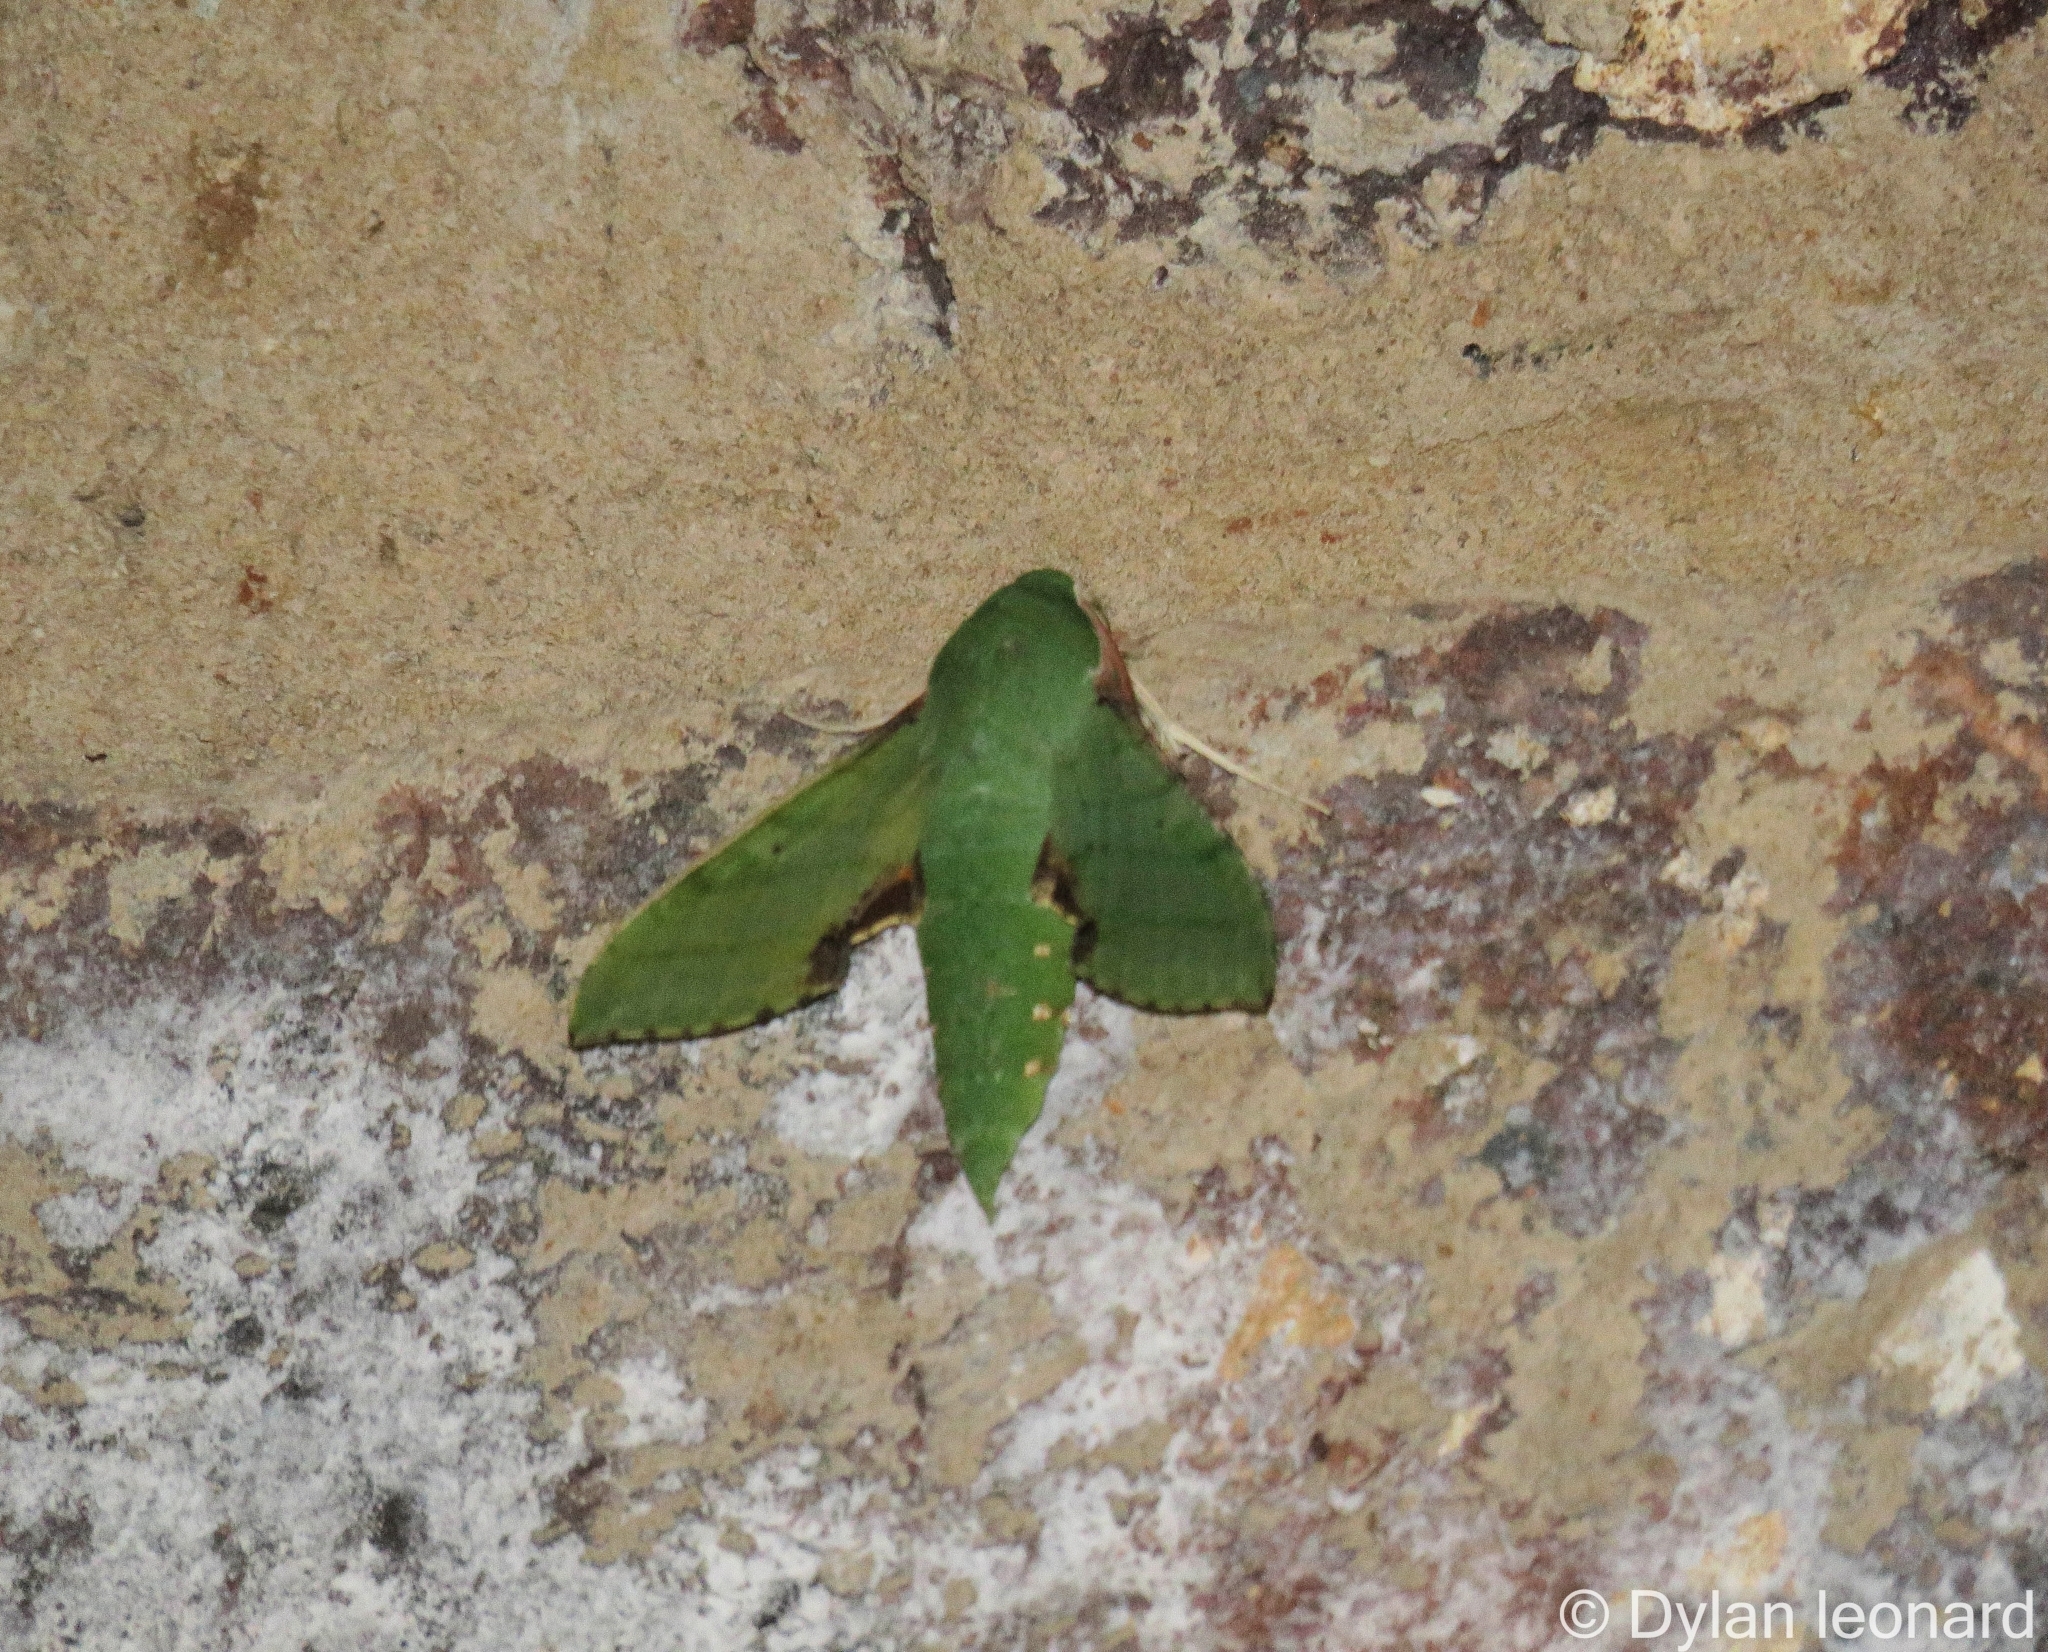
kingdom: Animalia
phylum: Arthropoda
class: Insecta
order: Lepidoptera
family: Sphingidae
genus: Basiothia
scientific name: Basiothia medea
